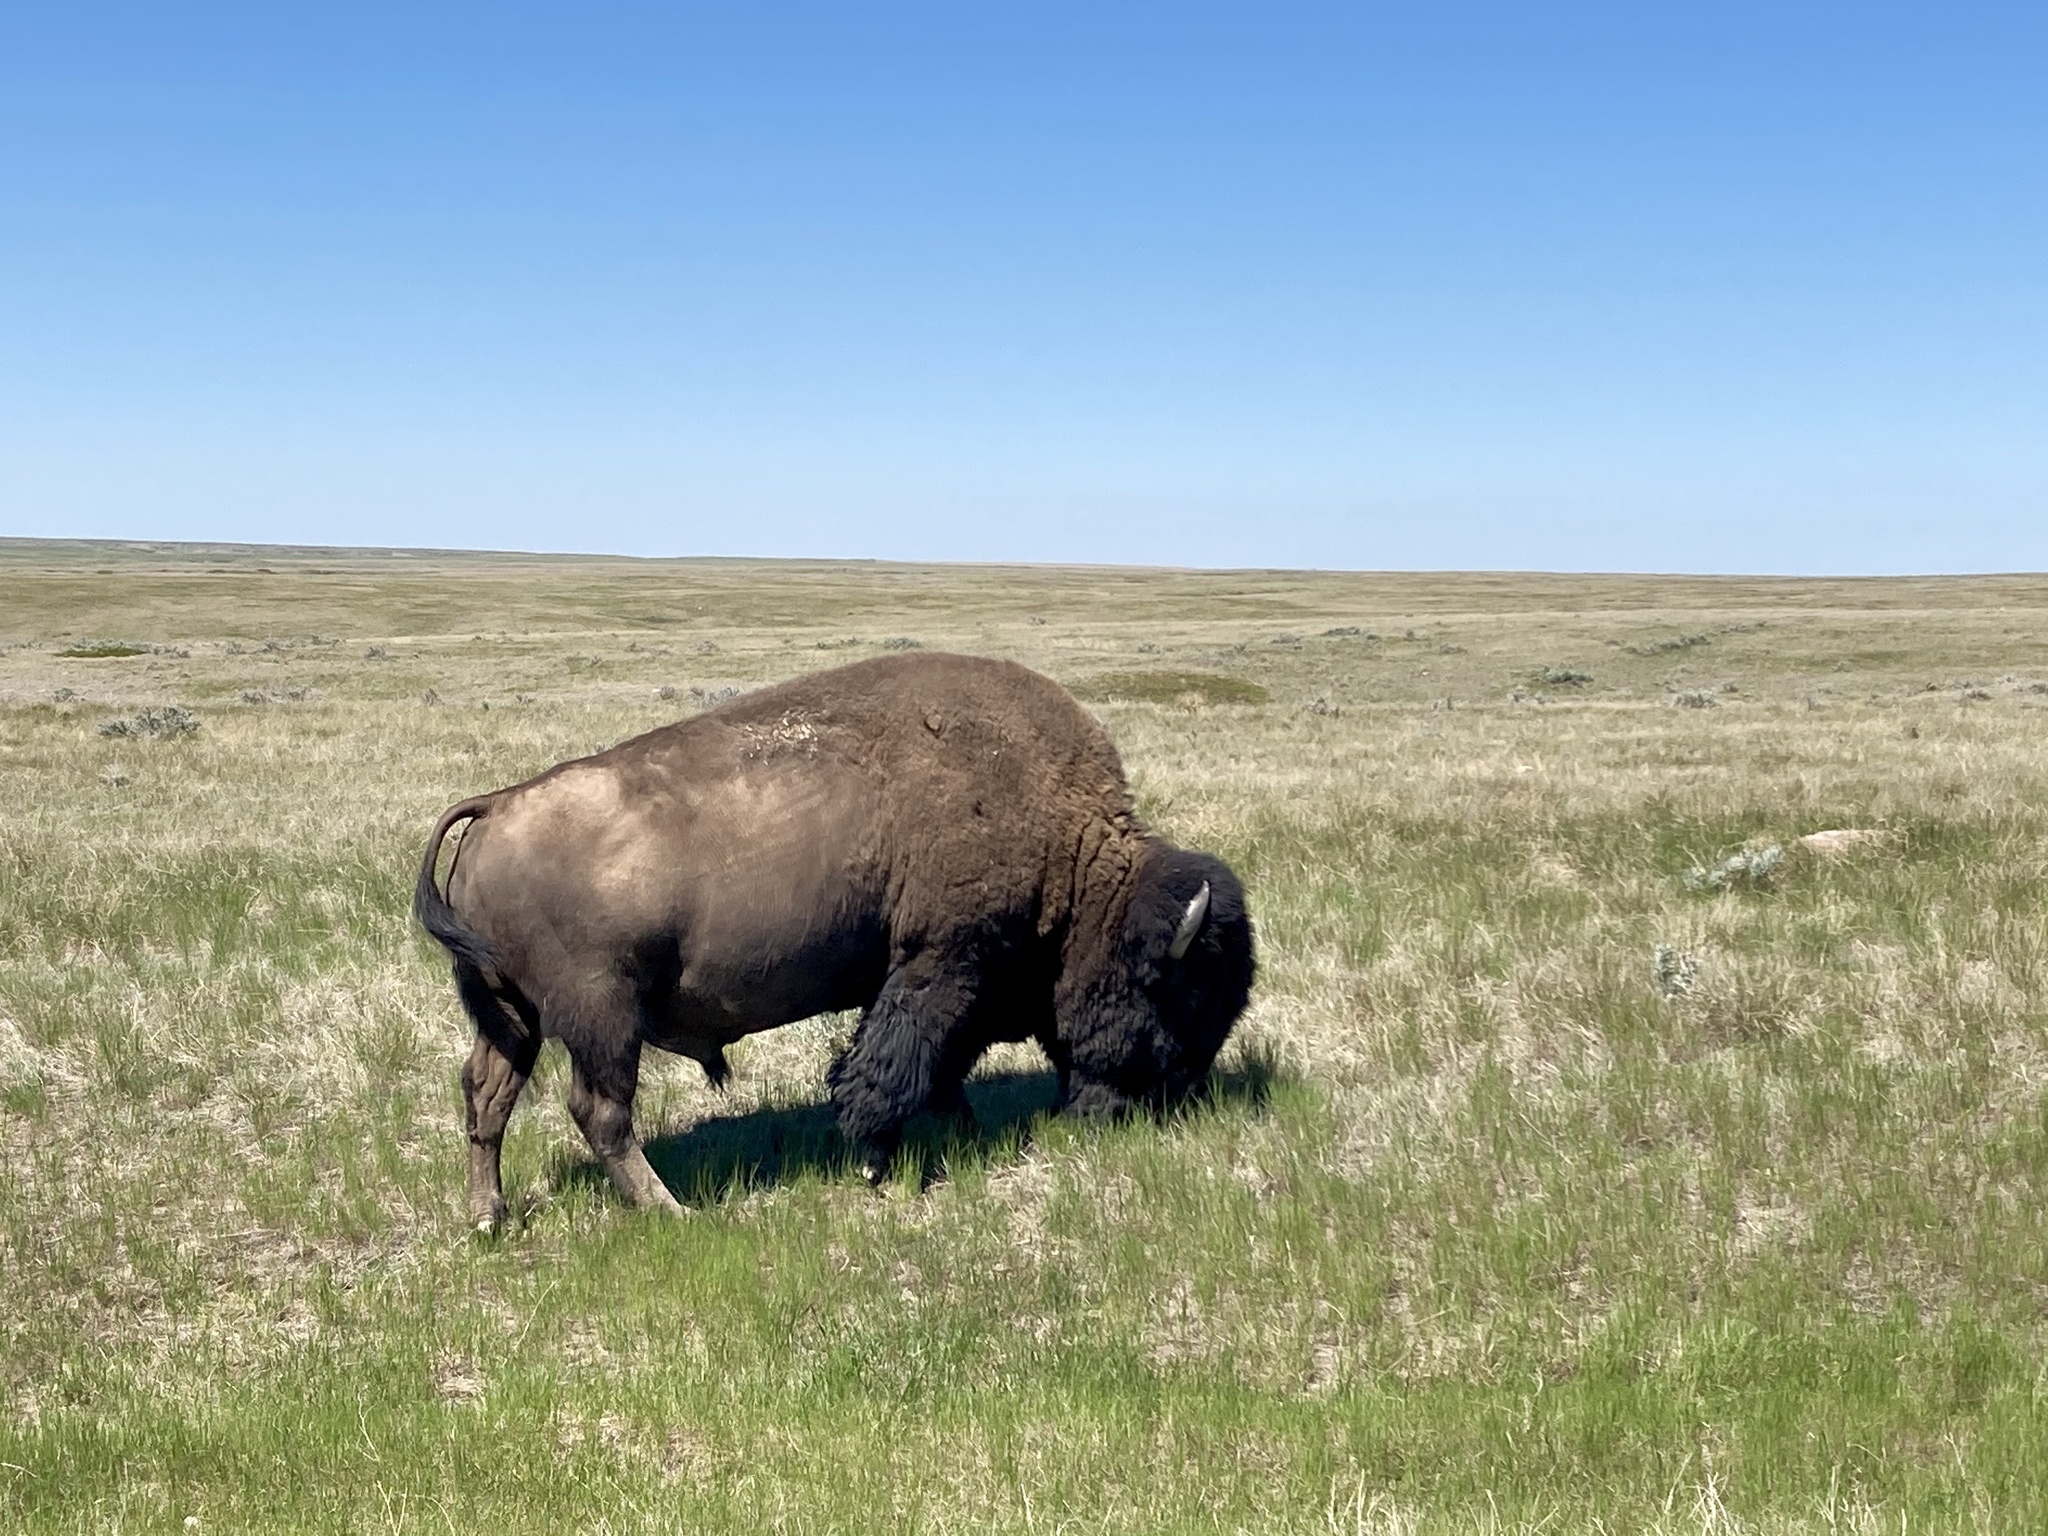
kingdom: Animalia
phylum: Chordata
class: Mammalia
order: Artiodactyla
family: Bovidae
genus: Bison
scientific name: Bison bison
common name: American bison
